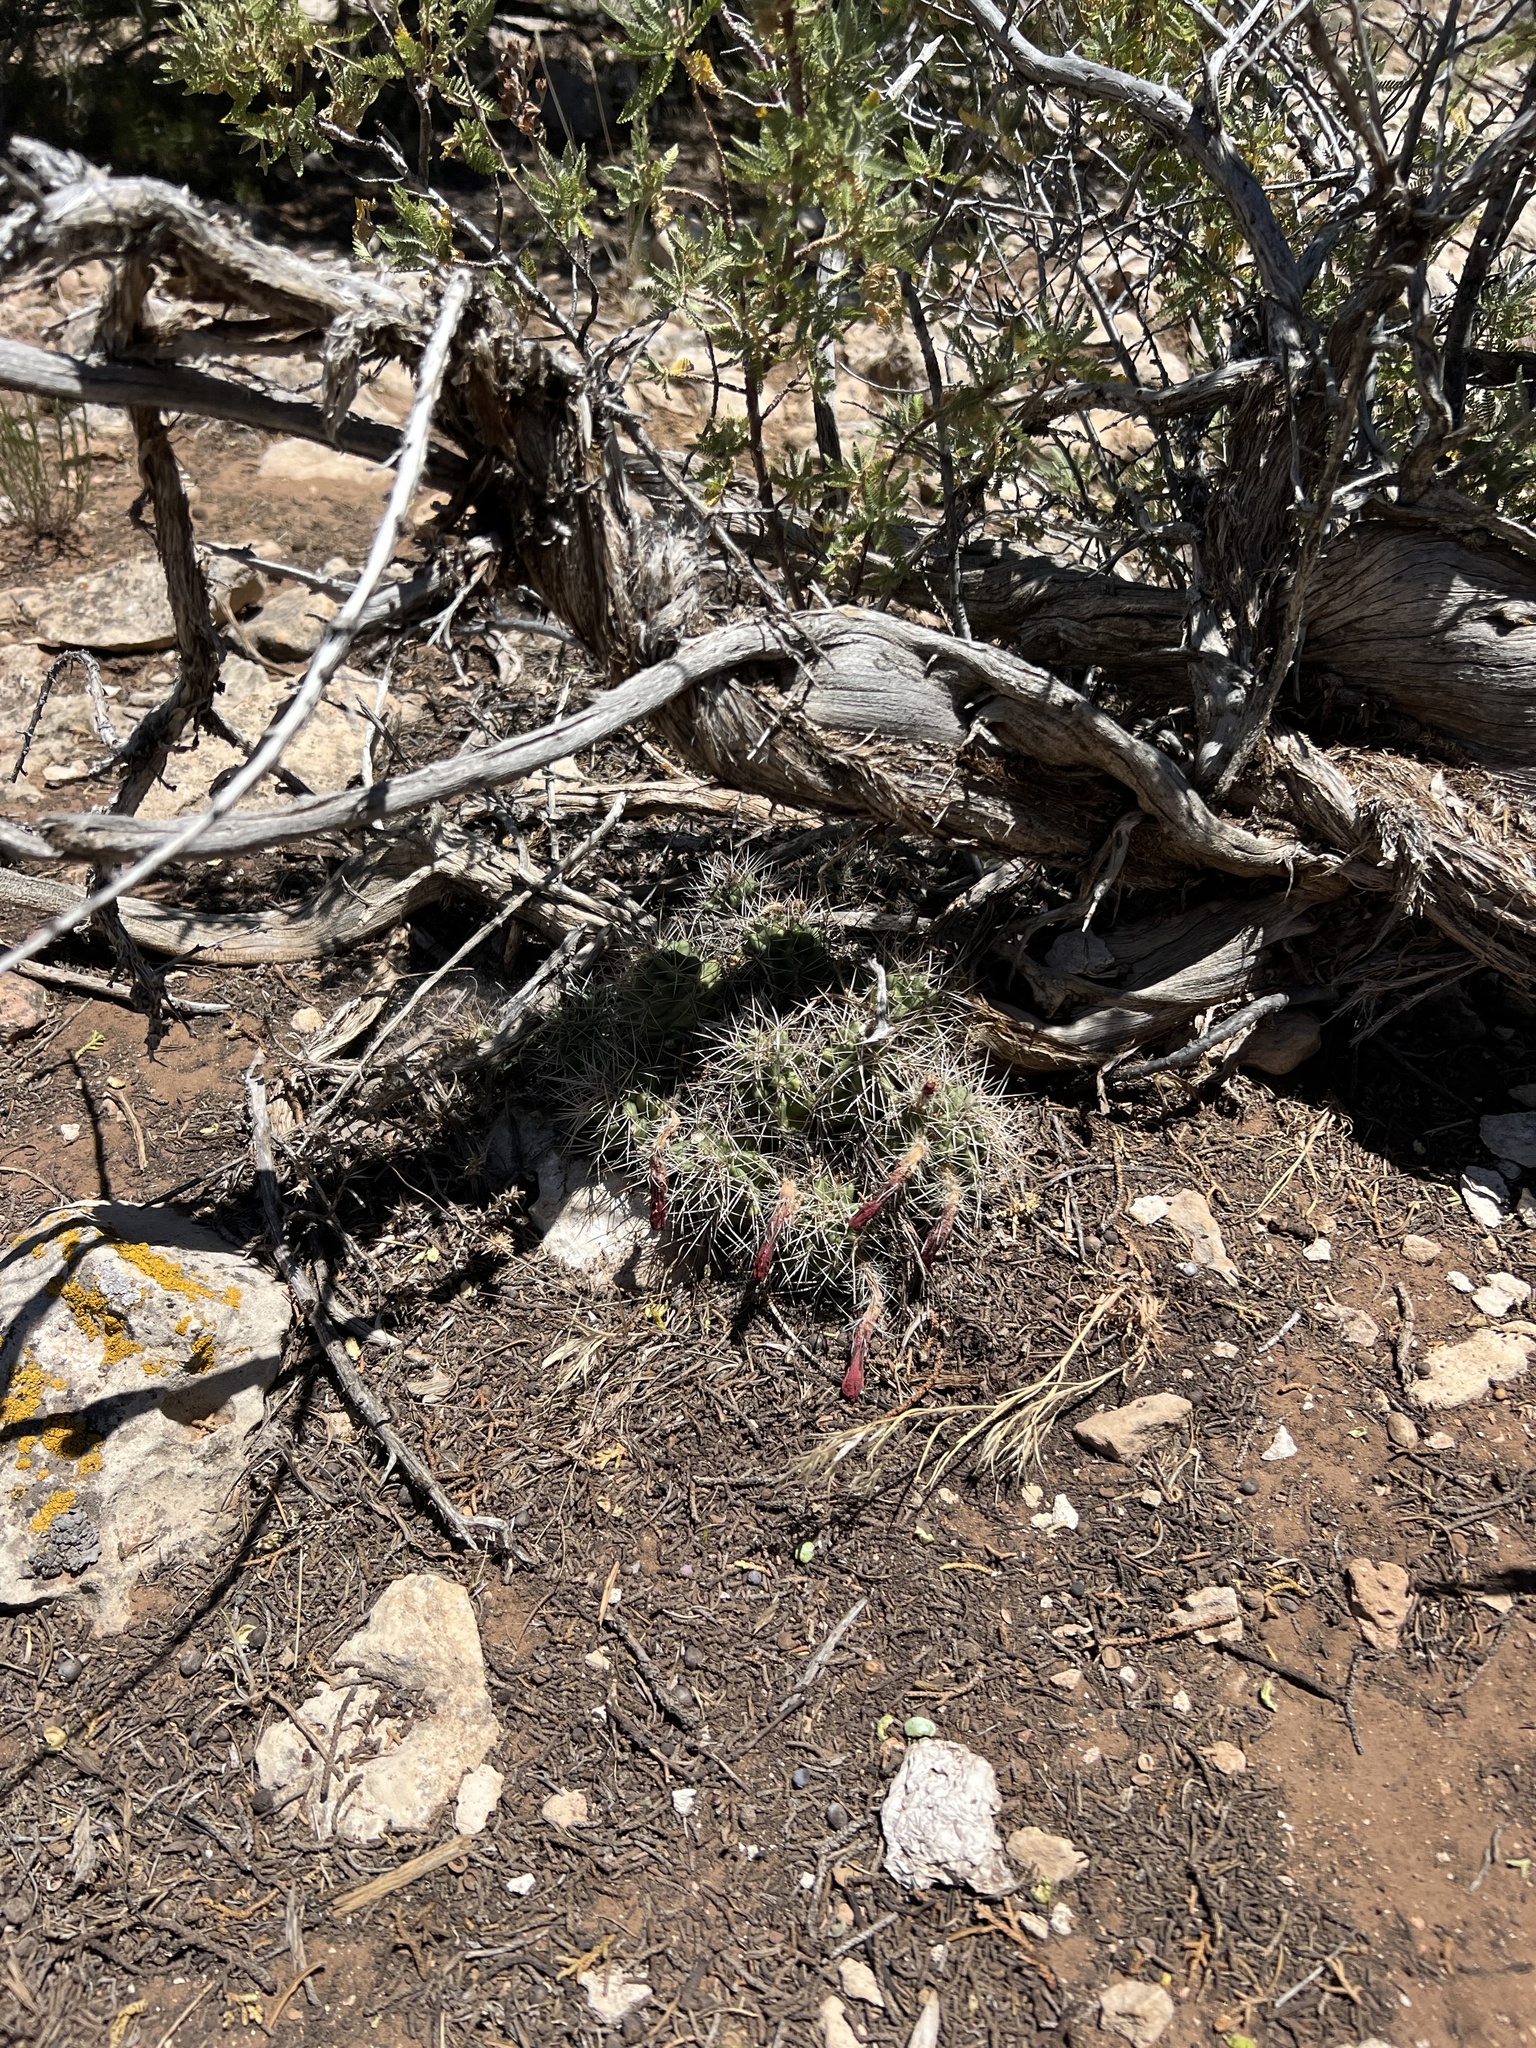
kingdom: Plantae
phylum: Tracheophyta
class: Magnoliopsida
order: Caryophyllales
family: Cactaceae
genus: Echinocereus
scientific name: Echinocereus triglochidiatus
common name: Claretcup hedgehog
